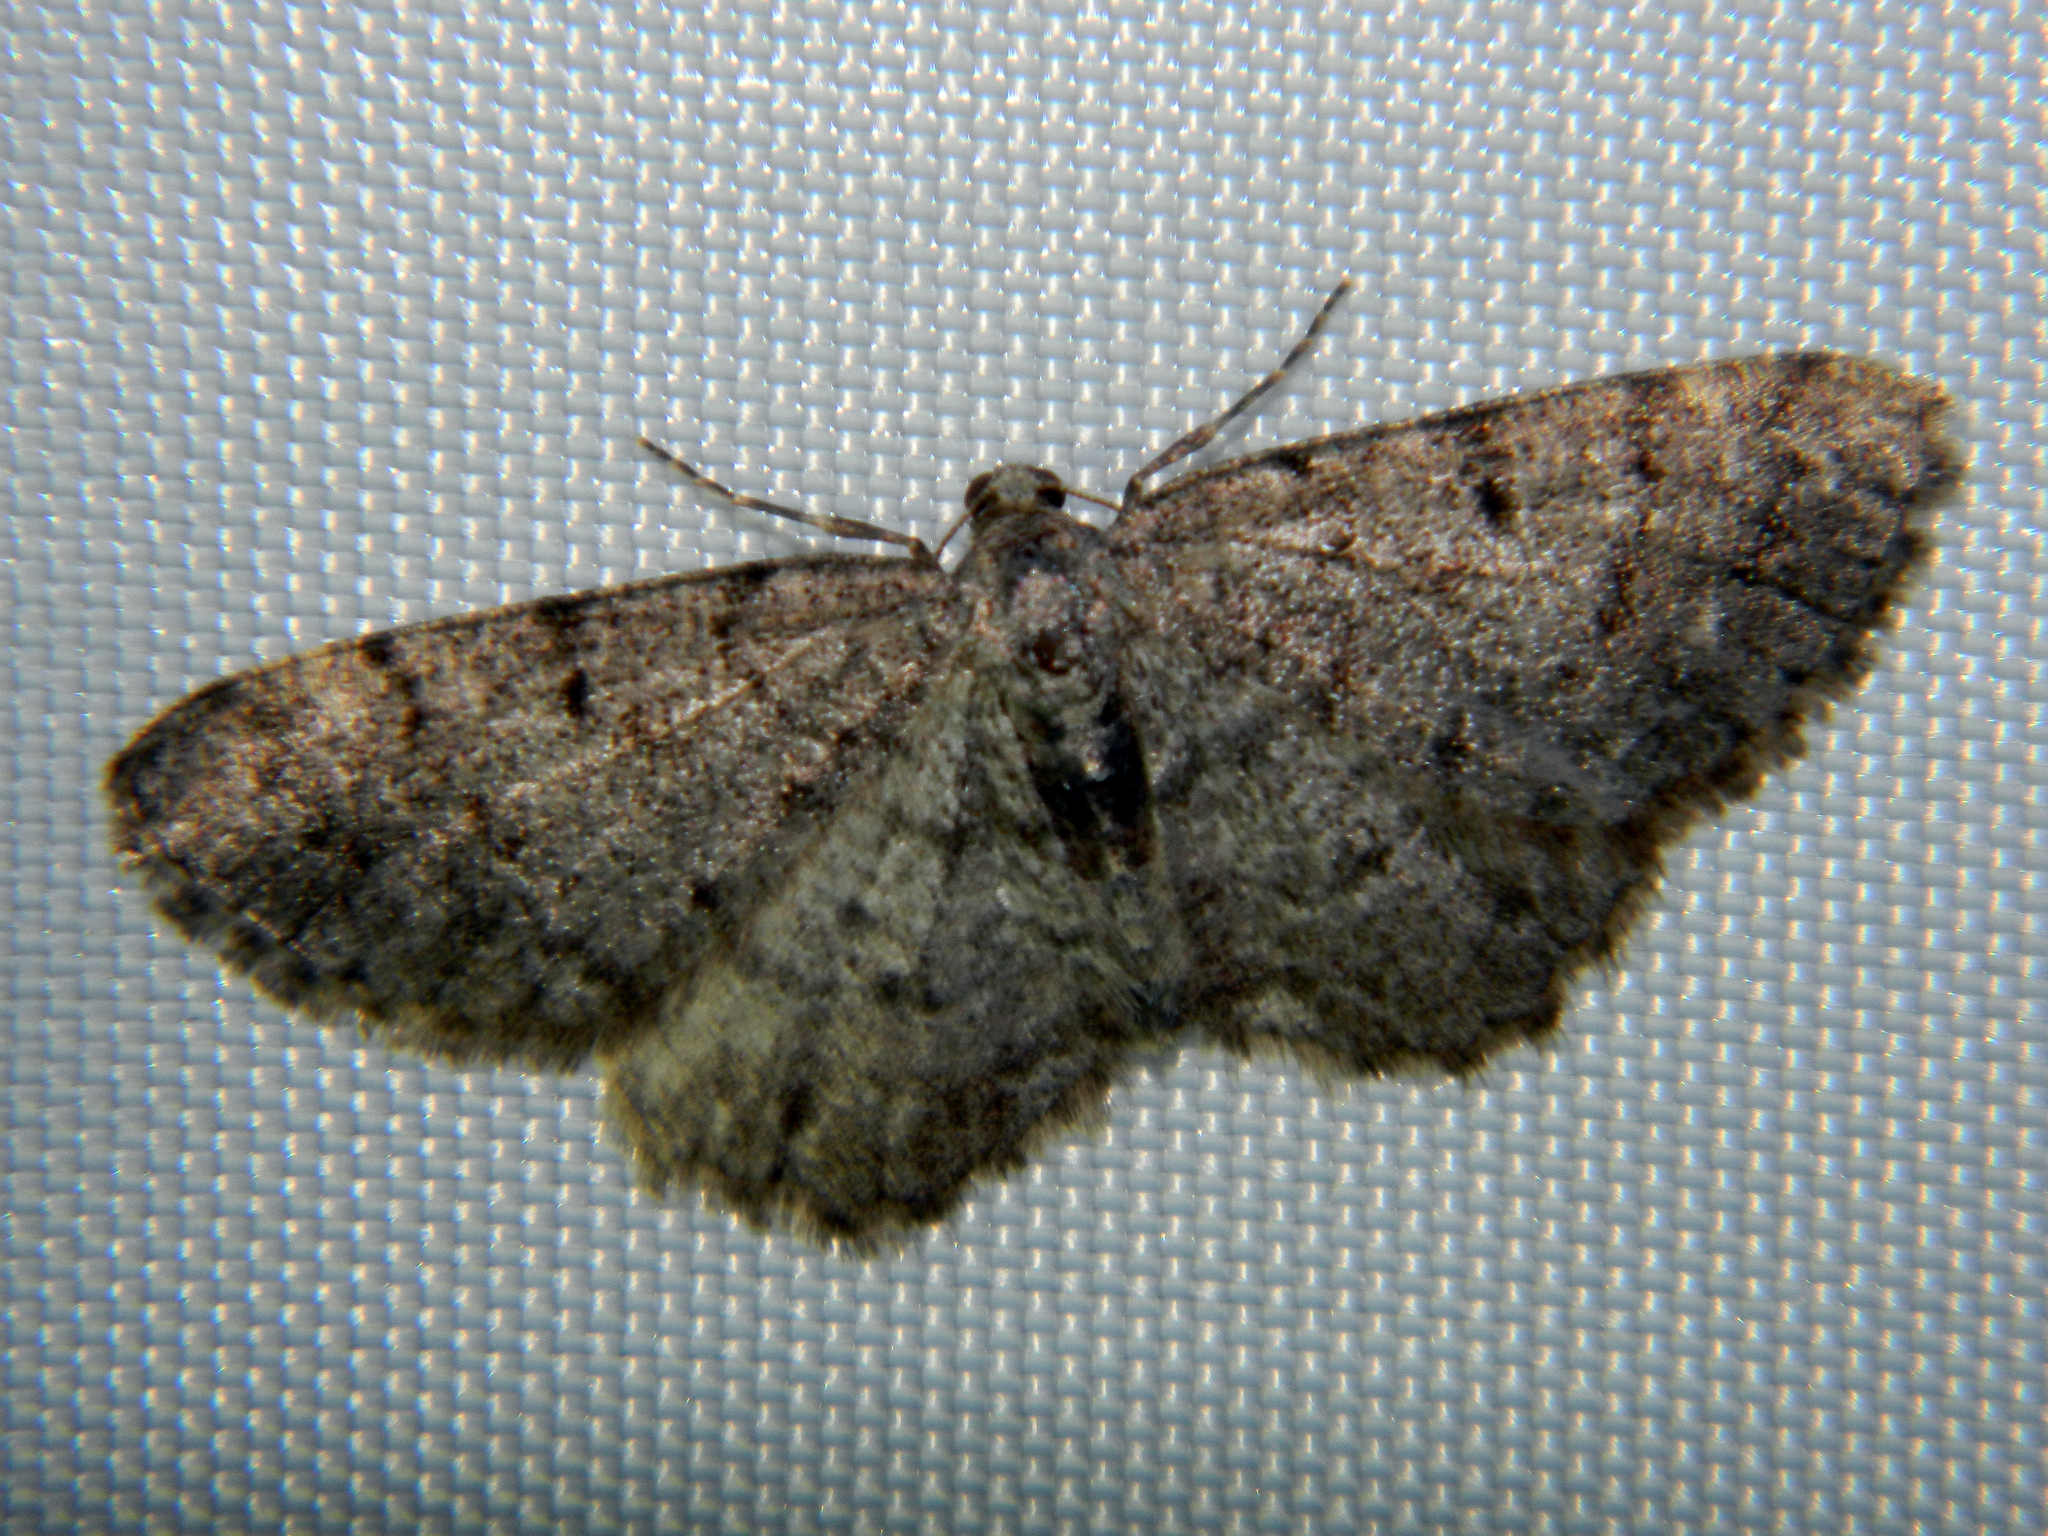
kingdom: Animalia
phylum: Arthropoda
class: Insecta
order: Lepidoptera
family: Geometridae
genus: Aethalura
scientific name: Aethalura intertexta
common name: Four-barred gray
